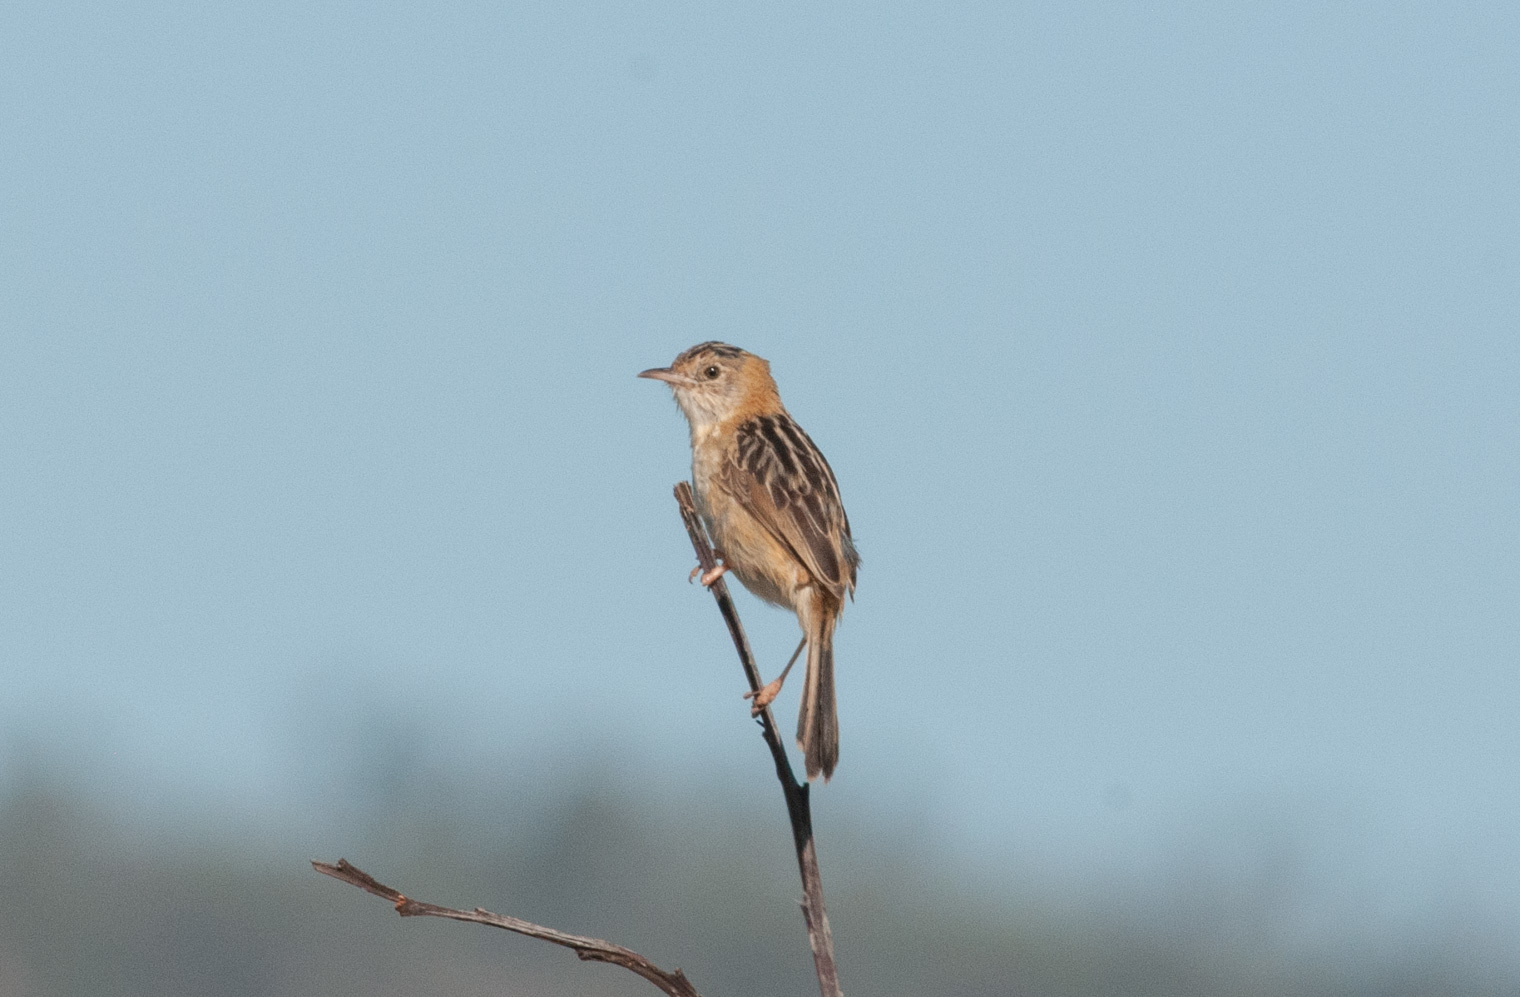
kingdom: Animalia
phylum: Chordata
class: Aves
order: Passeriformes
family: Cisticolidae
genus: Cisticola
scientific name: Cisticola exilis
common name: Golden-headed cisticola
